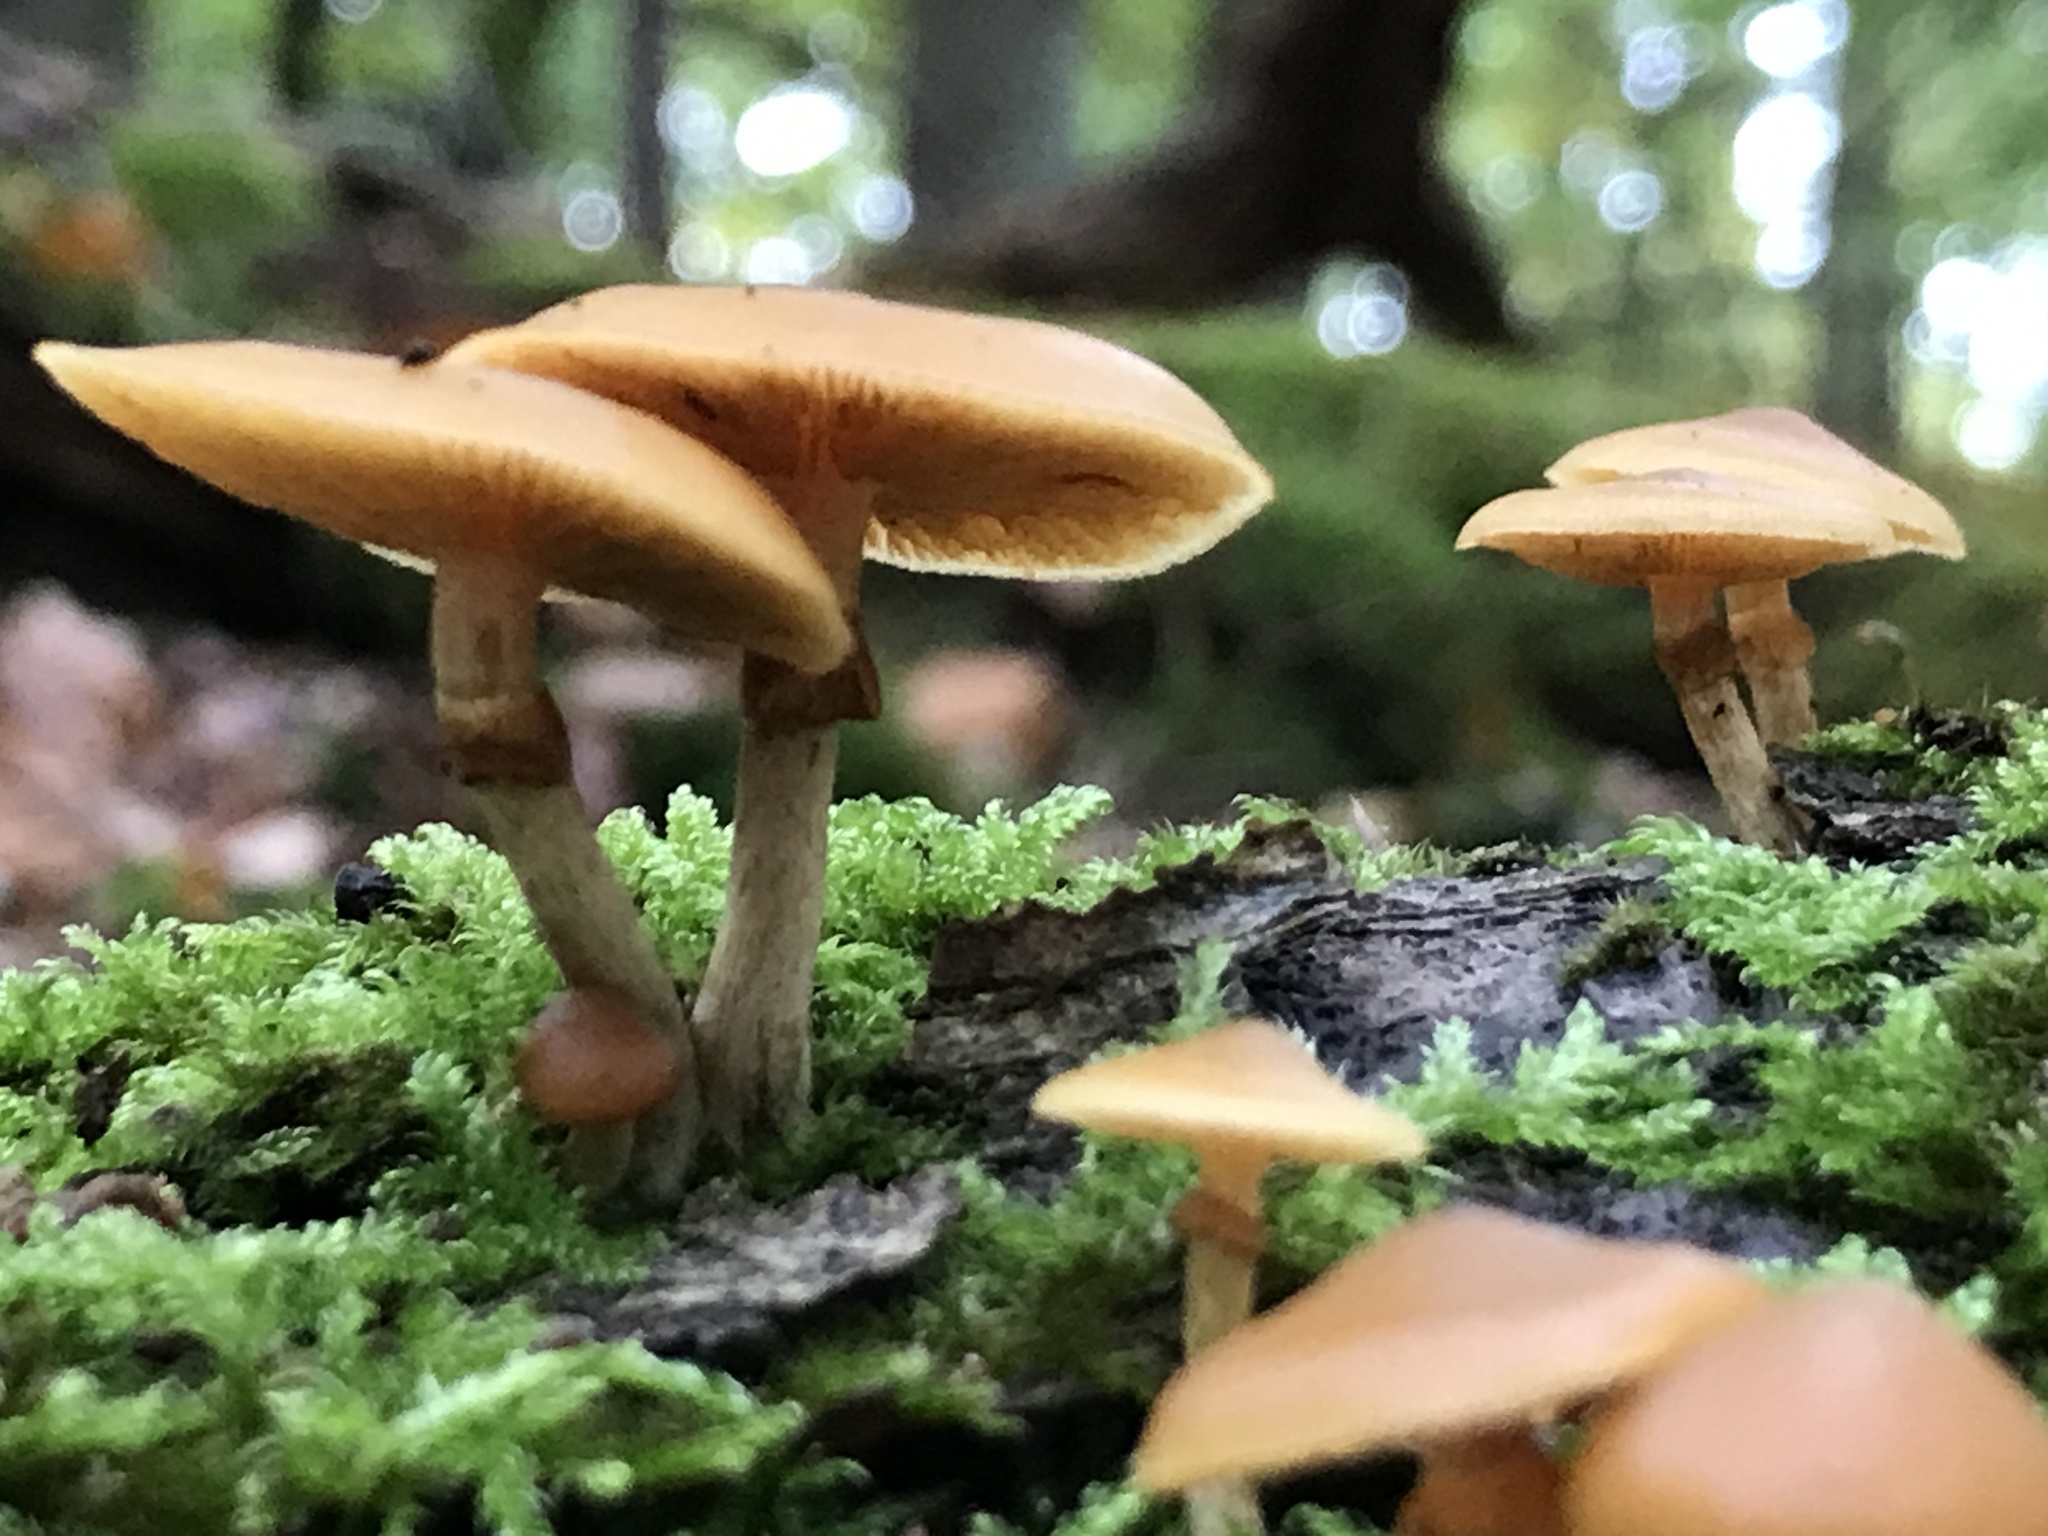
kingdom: Fungi
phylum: Basidiomycota
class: Agaricomycetes
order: Agaricales
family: Hymenogastraceae
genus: Galerina
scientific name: Galerina marginata
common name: Funeral bell
